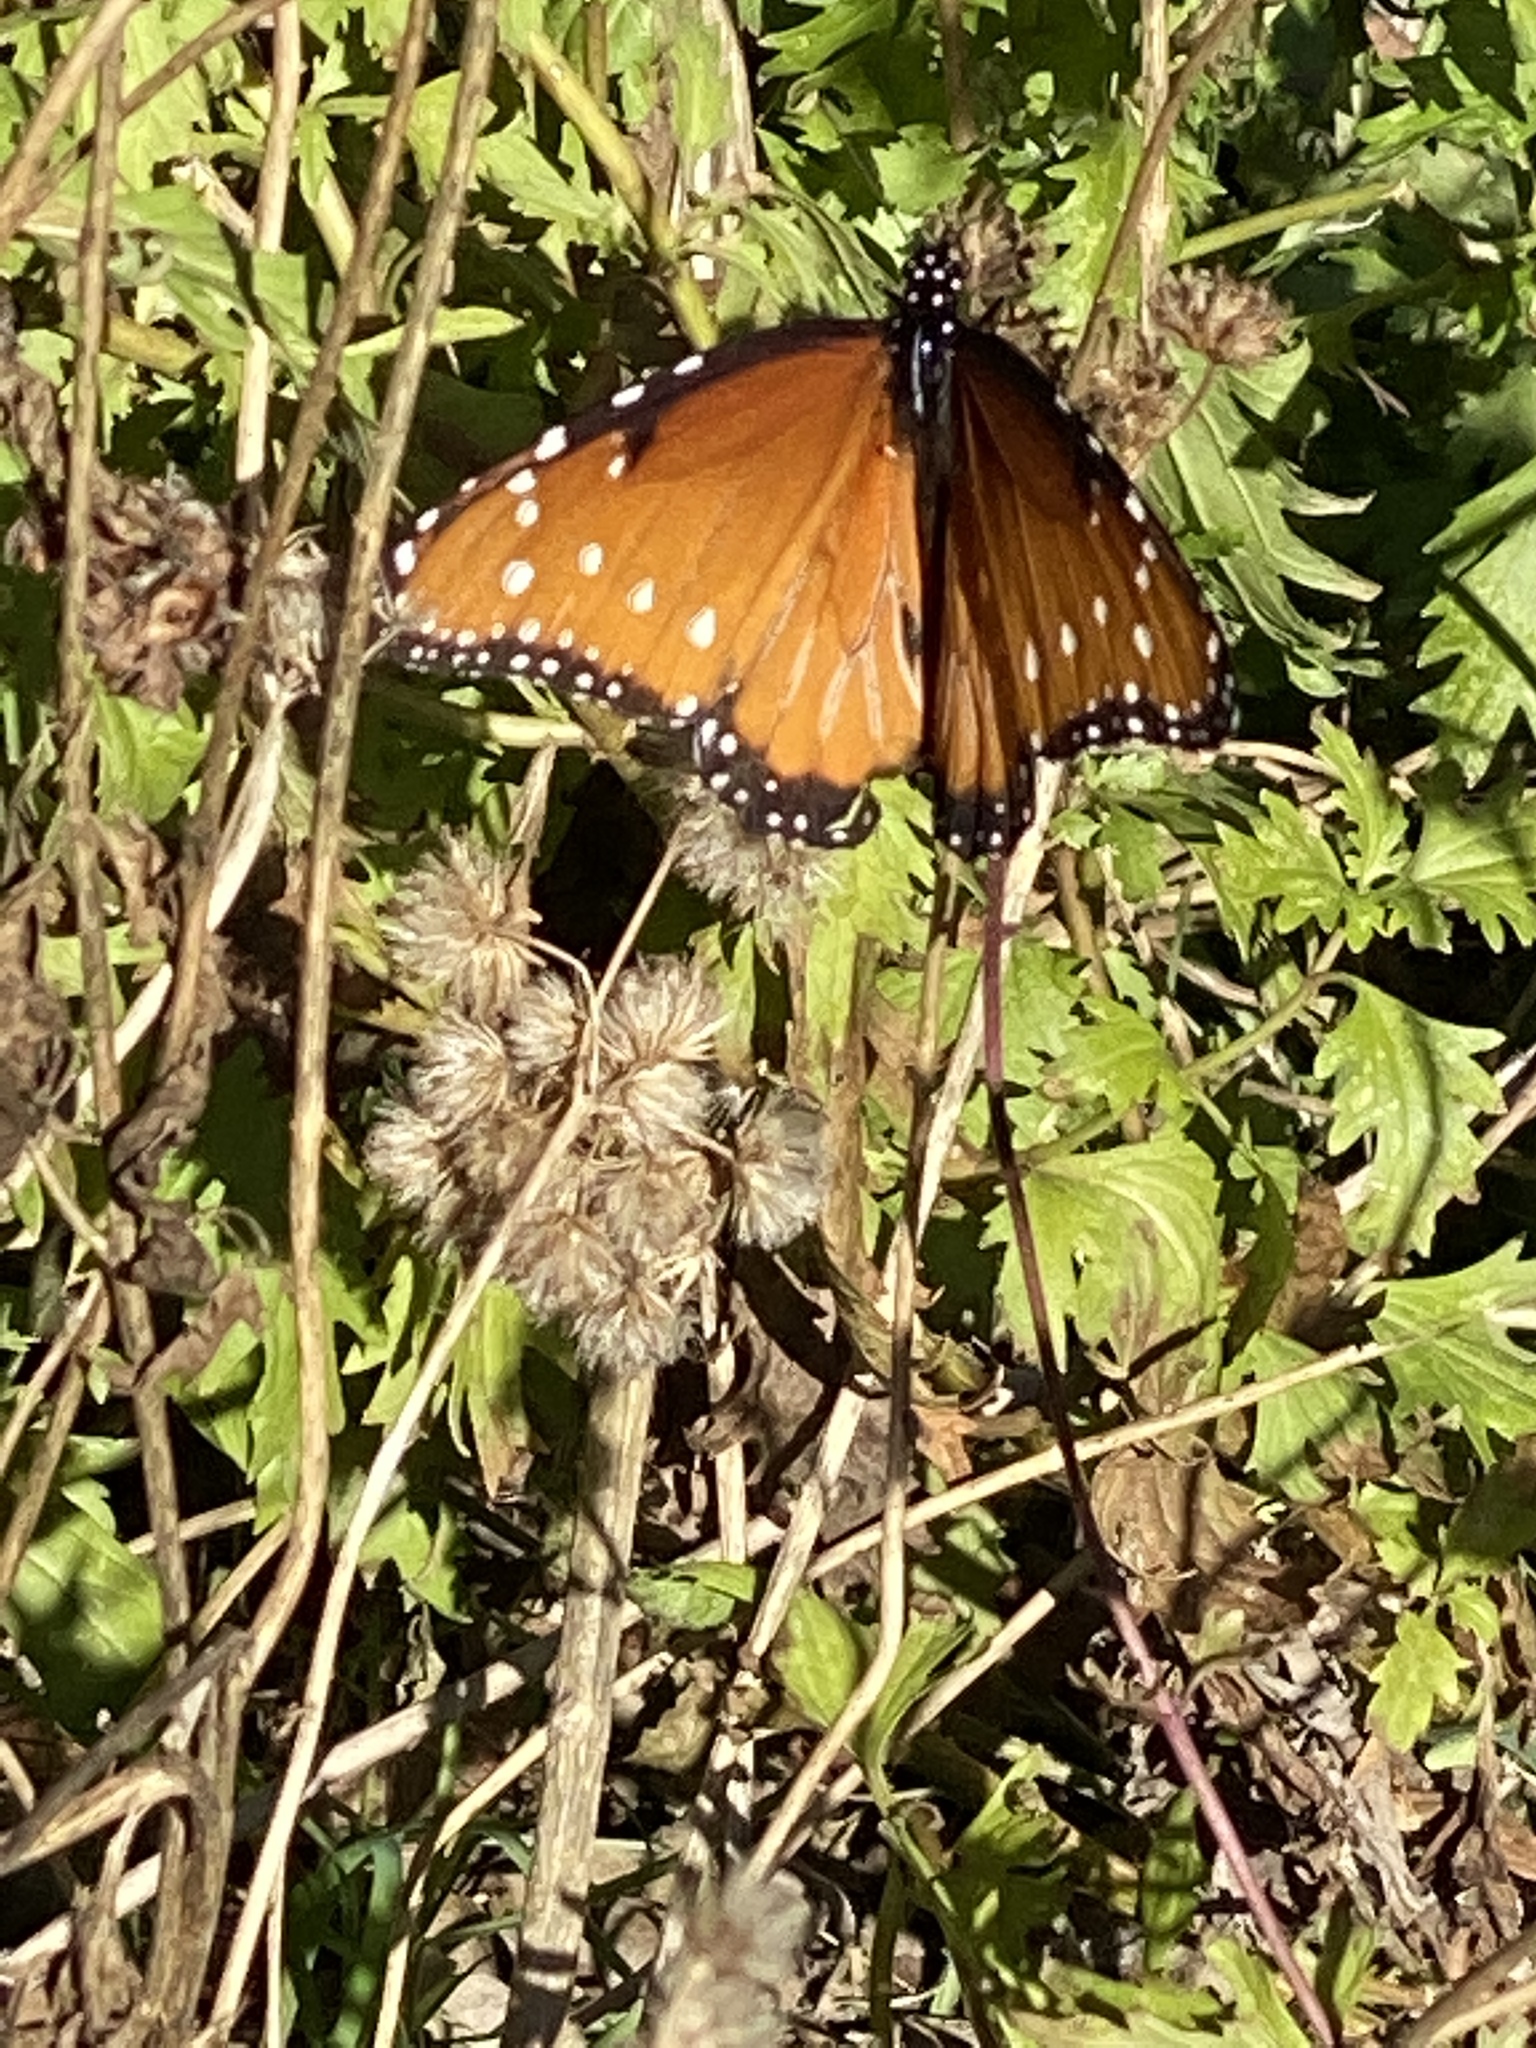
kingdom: Animalia
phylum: Arthropoda
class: Insecta
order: Lepidoptera
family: Nymphalidae
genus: Danaus
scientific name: Danaus gilippus
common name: Queen
